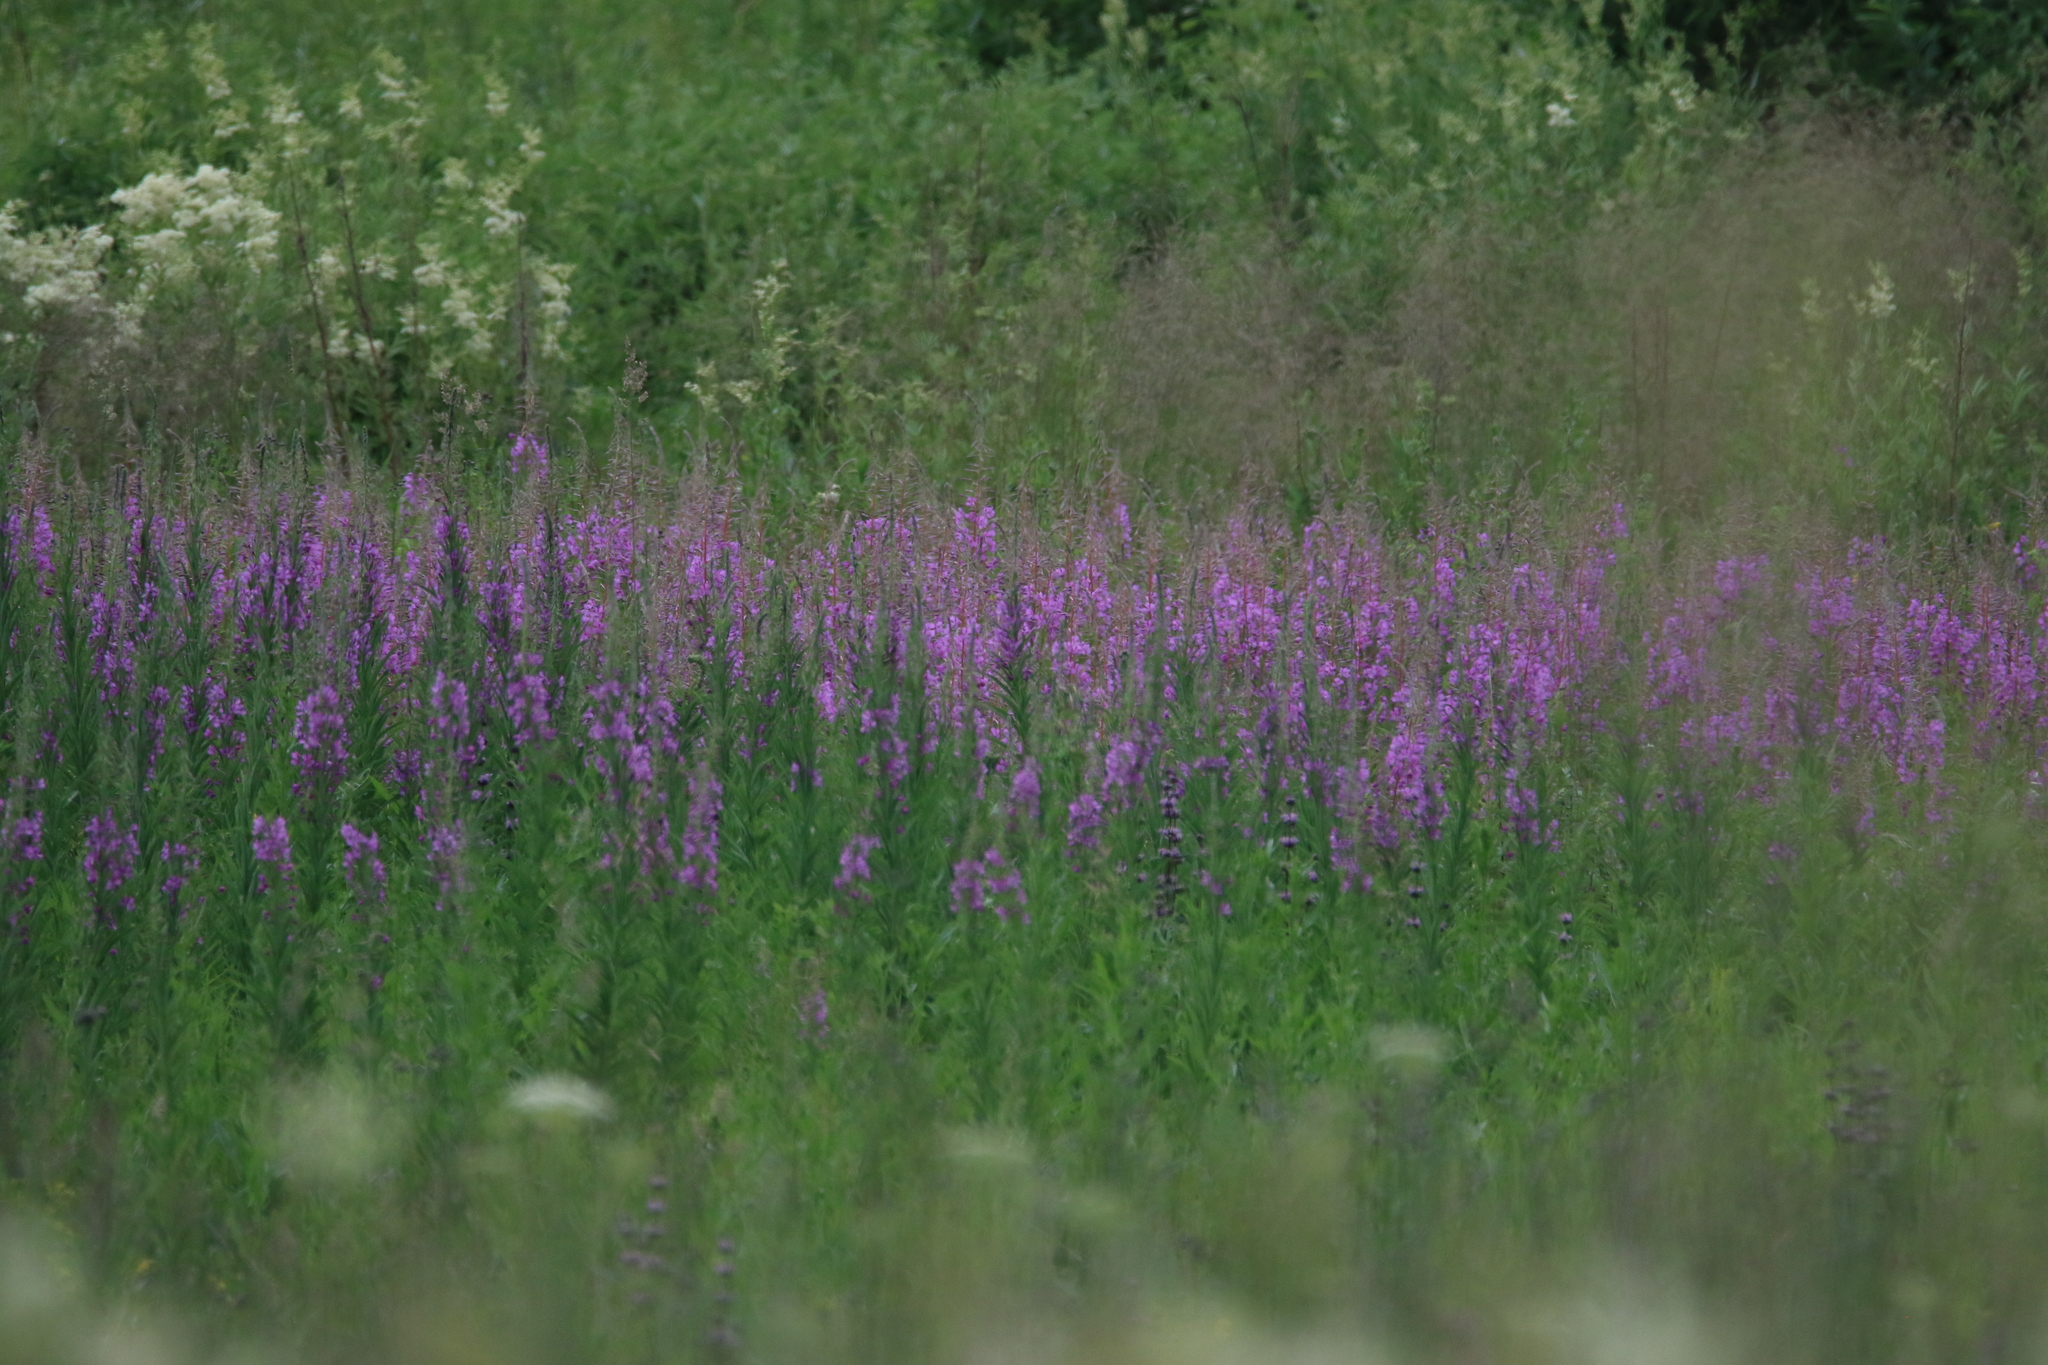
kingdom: Plantae
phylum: Tracheophyta
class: Magnoliopsida
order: Myrtales
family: Onagraceae
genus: Chamaenerion
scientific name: Chamaenerion angustifolium
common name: Fireweed
